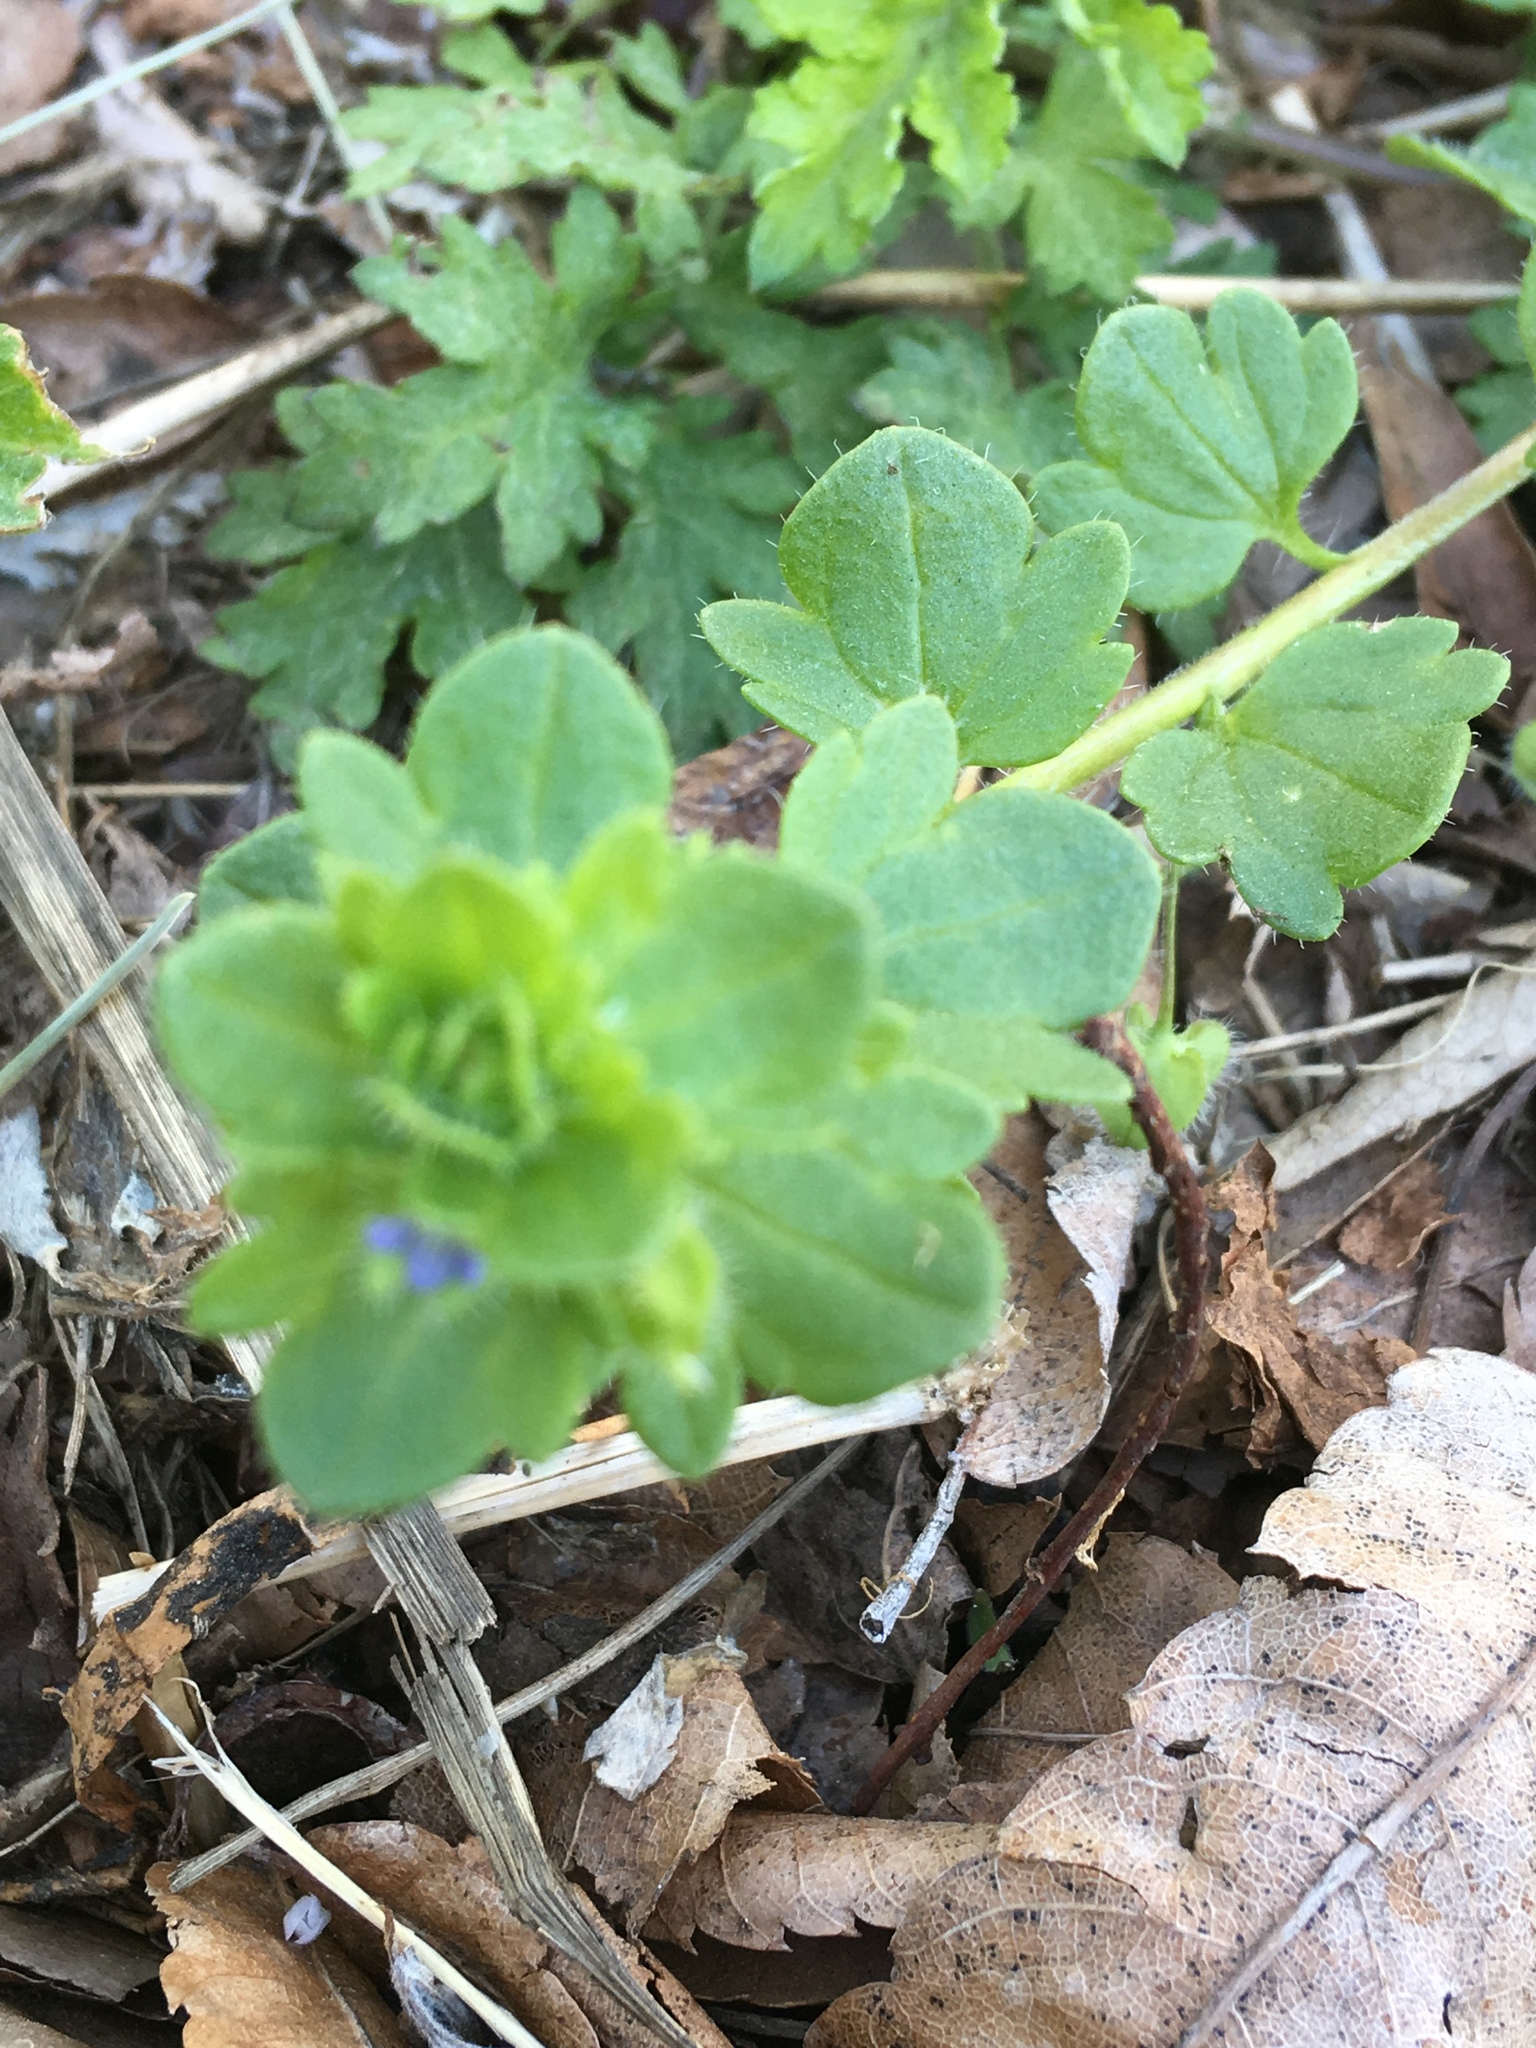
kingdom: Plantae
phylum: Tracheophyta
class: Magnoliopsida
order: Lamiales
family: Plantaginaceae
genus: Veronica
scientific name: Veronica hederifolia
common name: Ivy-leaved speedwell
